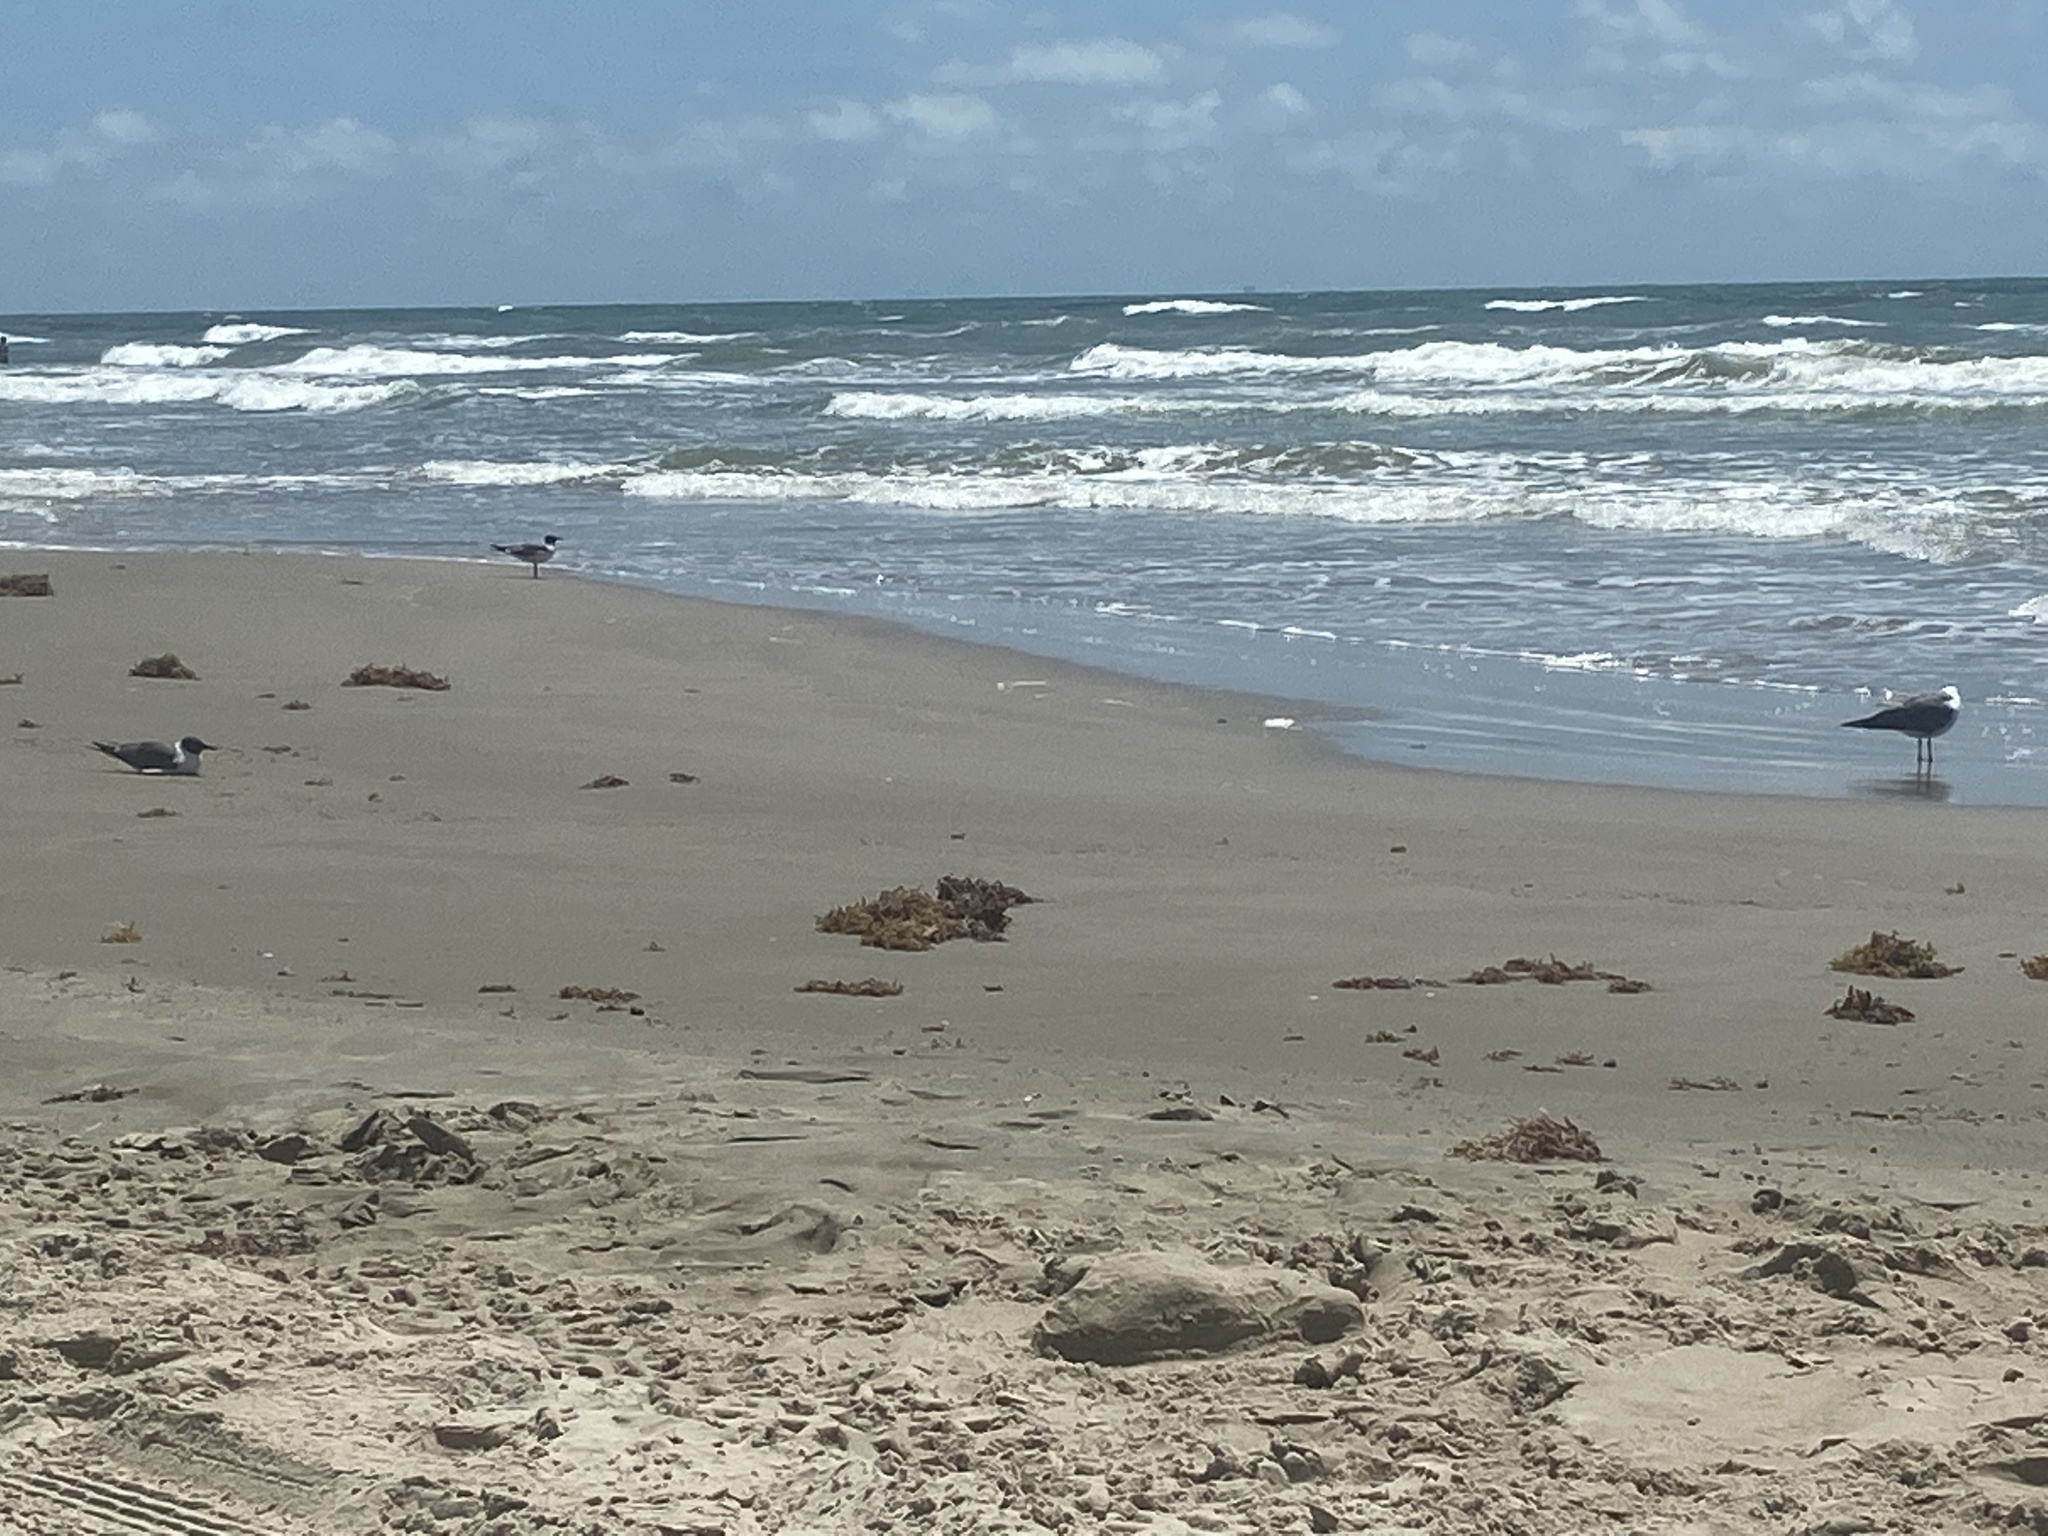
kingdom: Animalia
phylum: Chordata
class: Aves
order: Charadriiformes
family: Laridae
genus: Leucophaeus
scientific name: Leucophaeus atricilla
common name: Laughing gull
